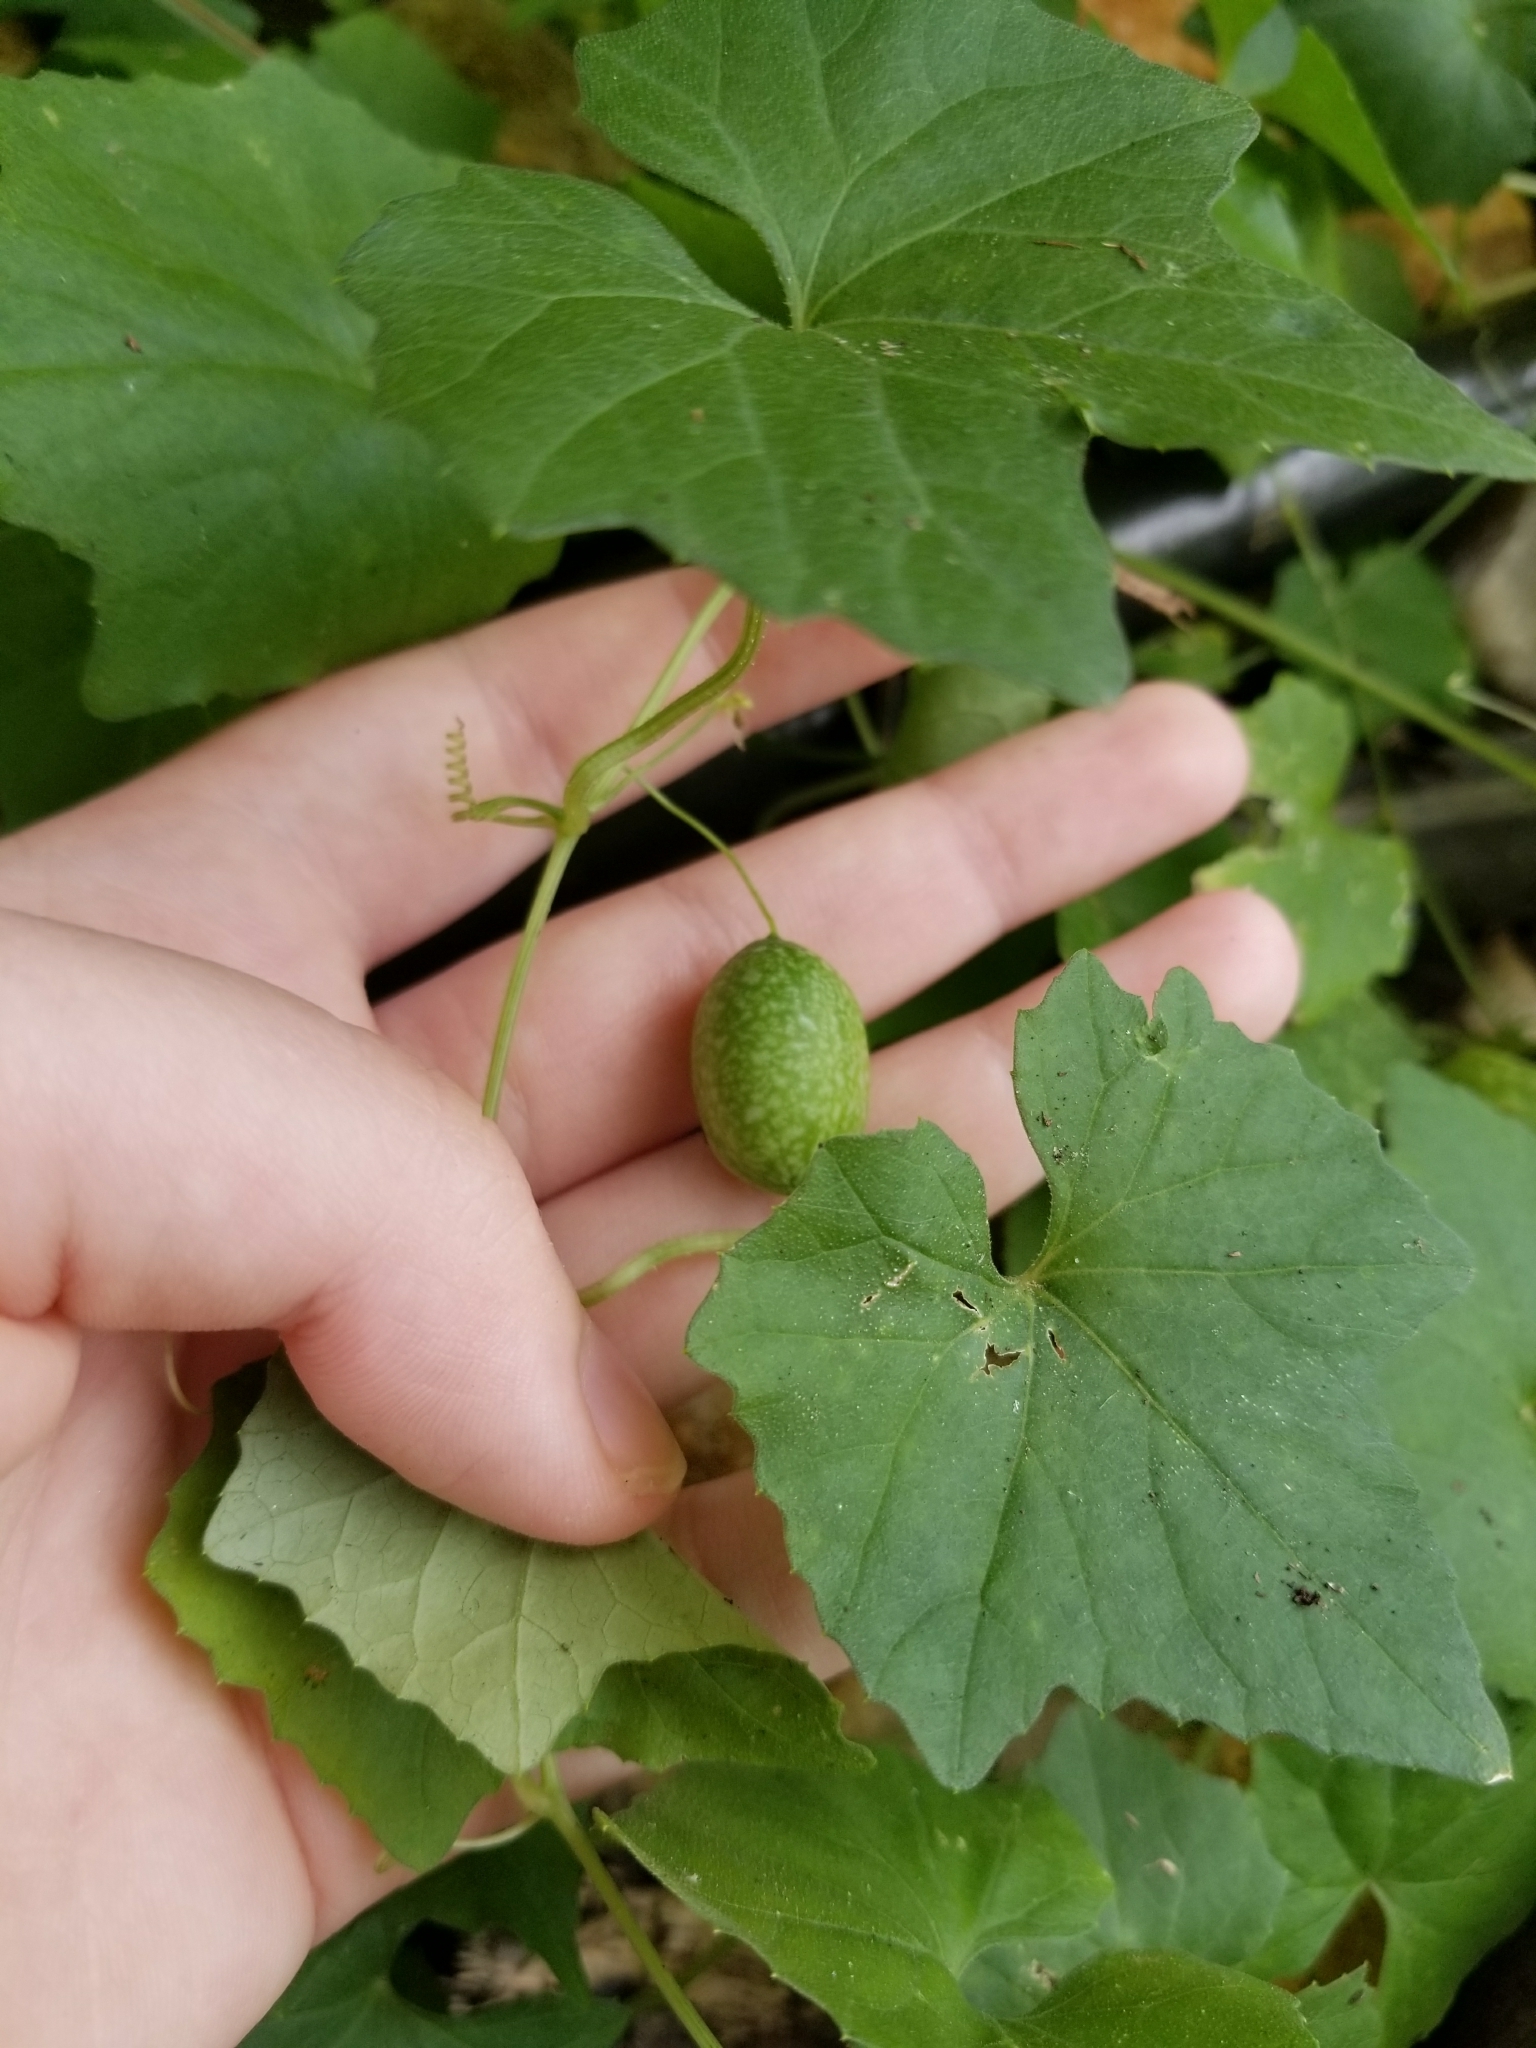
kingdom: Plantae
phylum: Tracheophyta
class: Magnoliopsida
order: Cucurbitales
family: Cucurbitaceae
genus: Melothria
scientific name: Melothria pendula
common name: Creeping-cucumber
